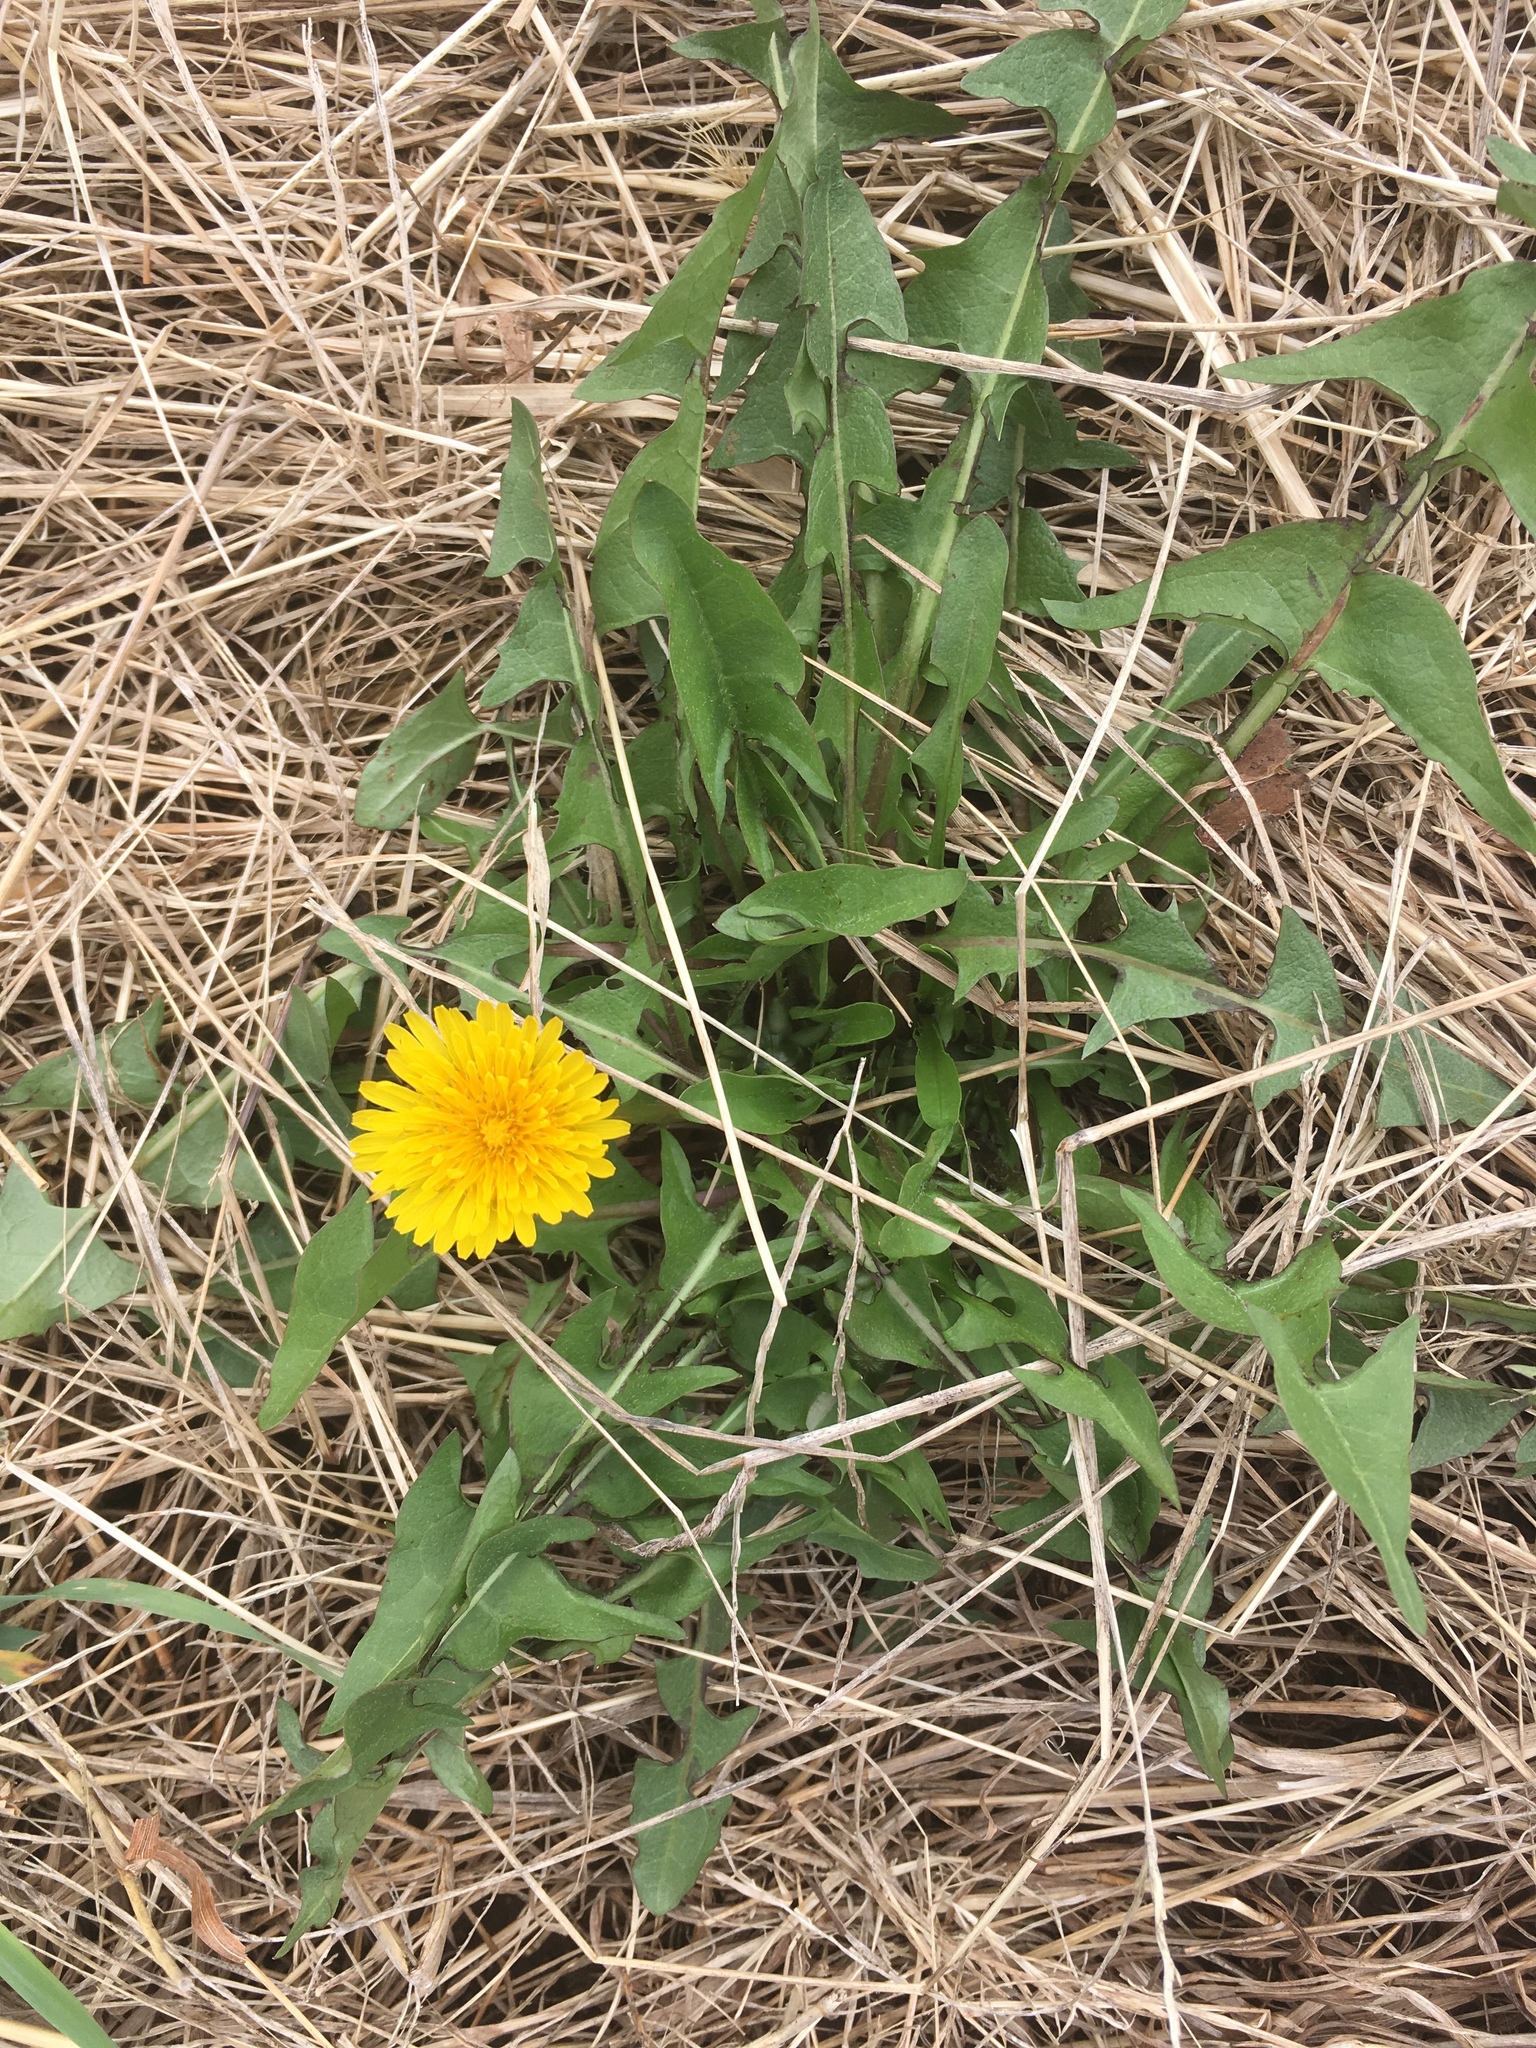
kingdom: Plantae
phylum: Tracheophyta
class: Magnoliopsida
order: Asterales
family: Asteraceae
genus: Taraxacum
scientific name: Taraxacum officinale
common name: Common dandelion
